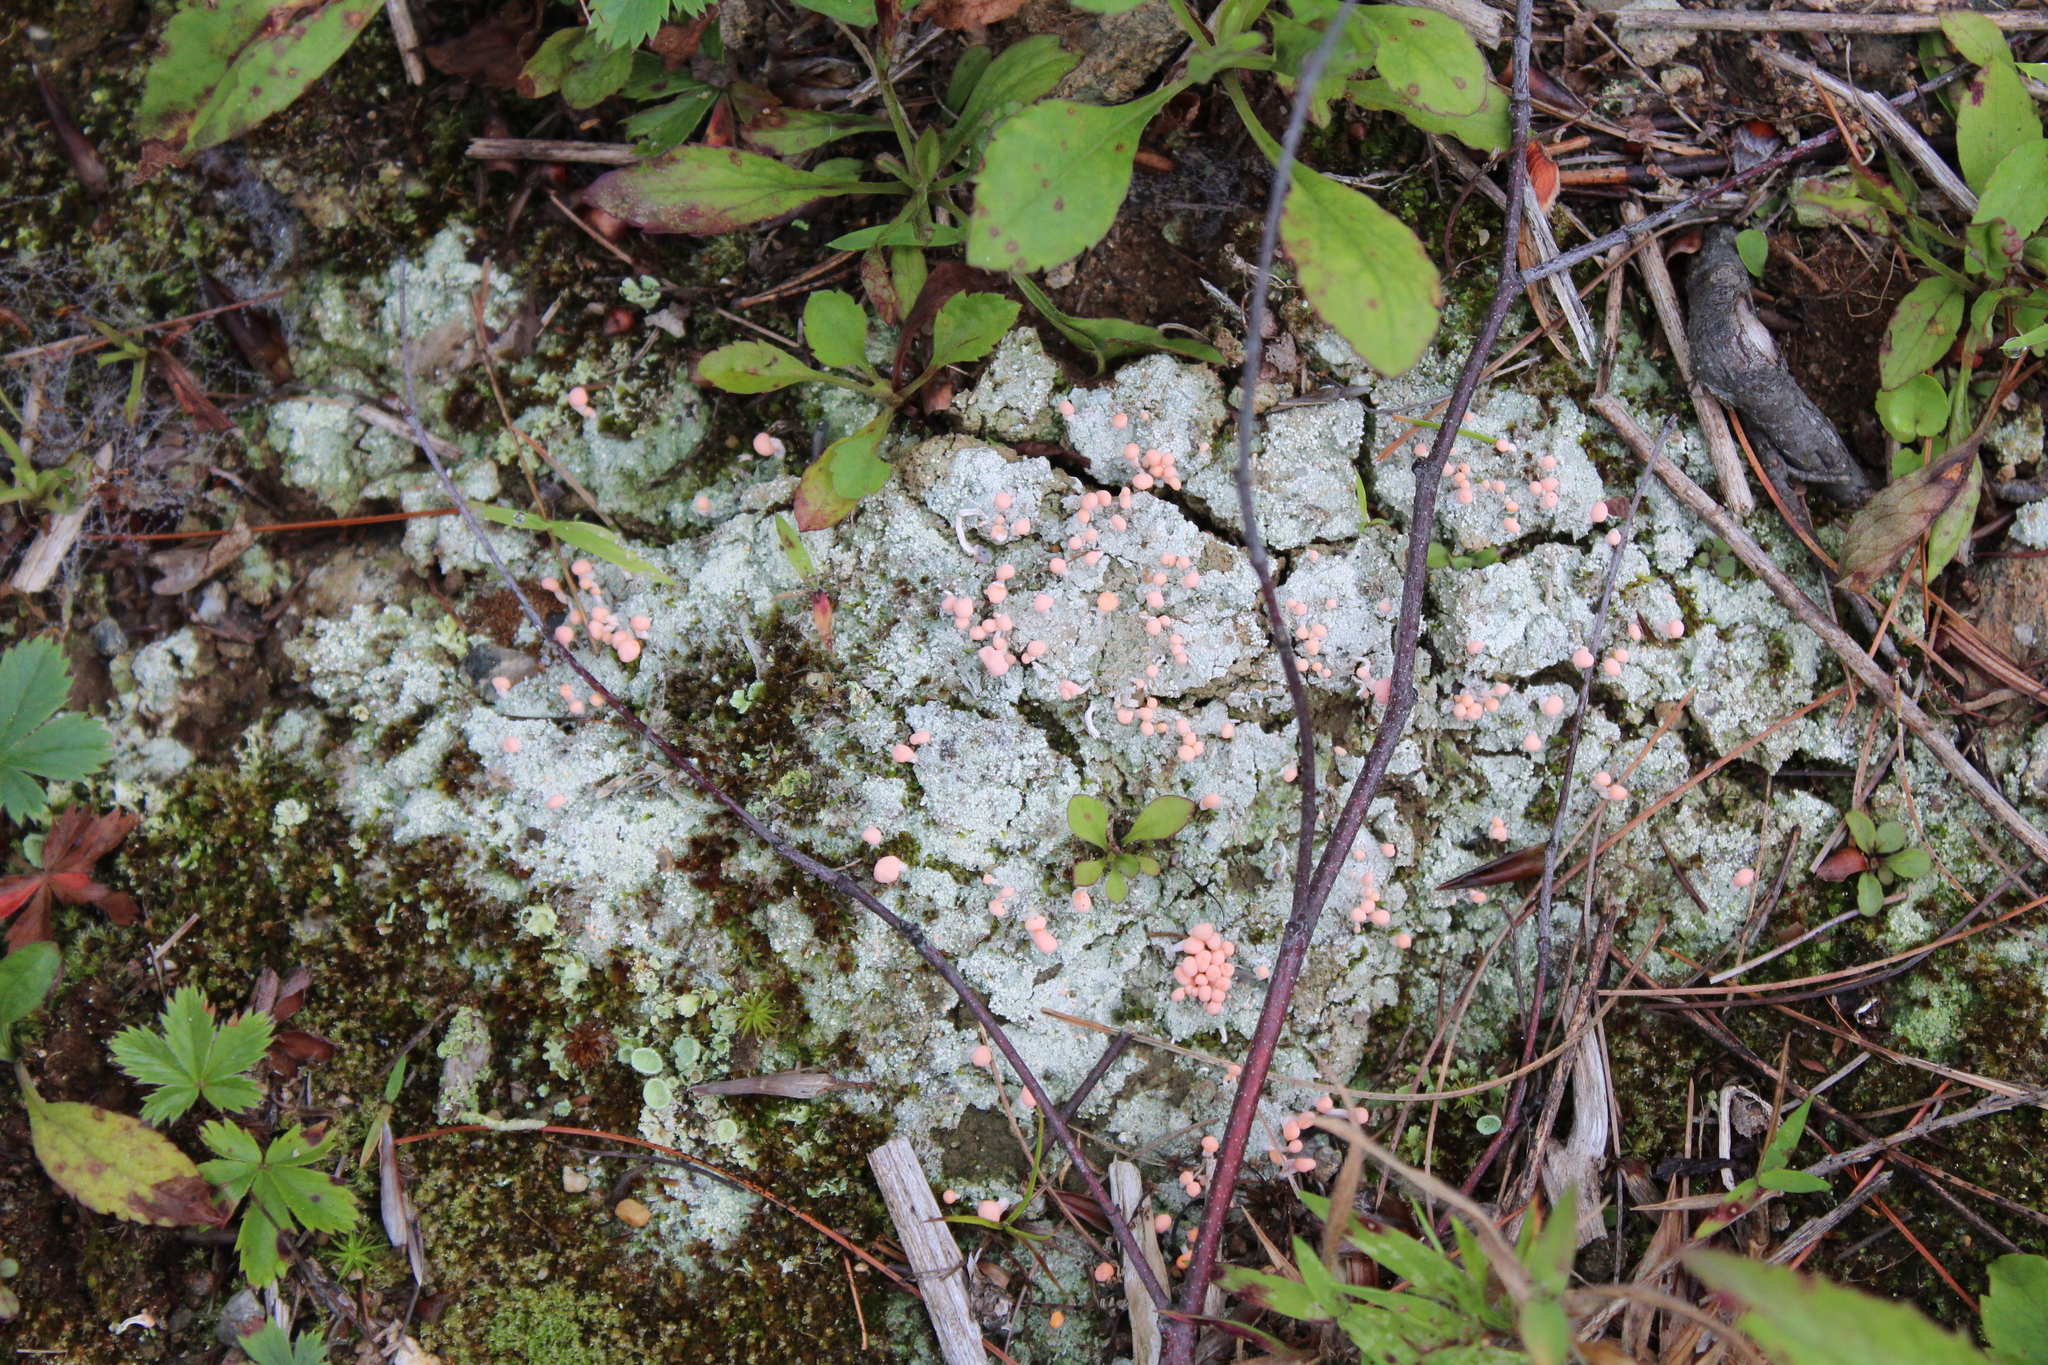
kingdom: Fungi
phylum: Ascomycota
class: Lecanoromycetes
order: Pertusariales
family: Icmadophilaceae
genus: Dibaeis
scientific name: Dibaeis baeomyces
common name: Pink earth lichen
